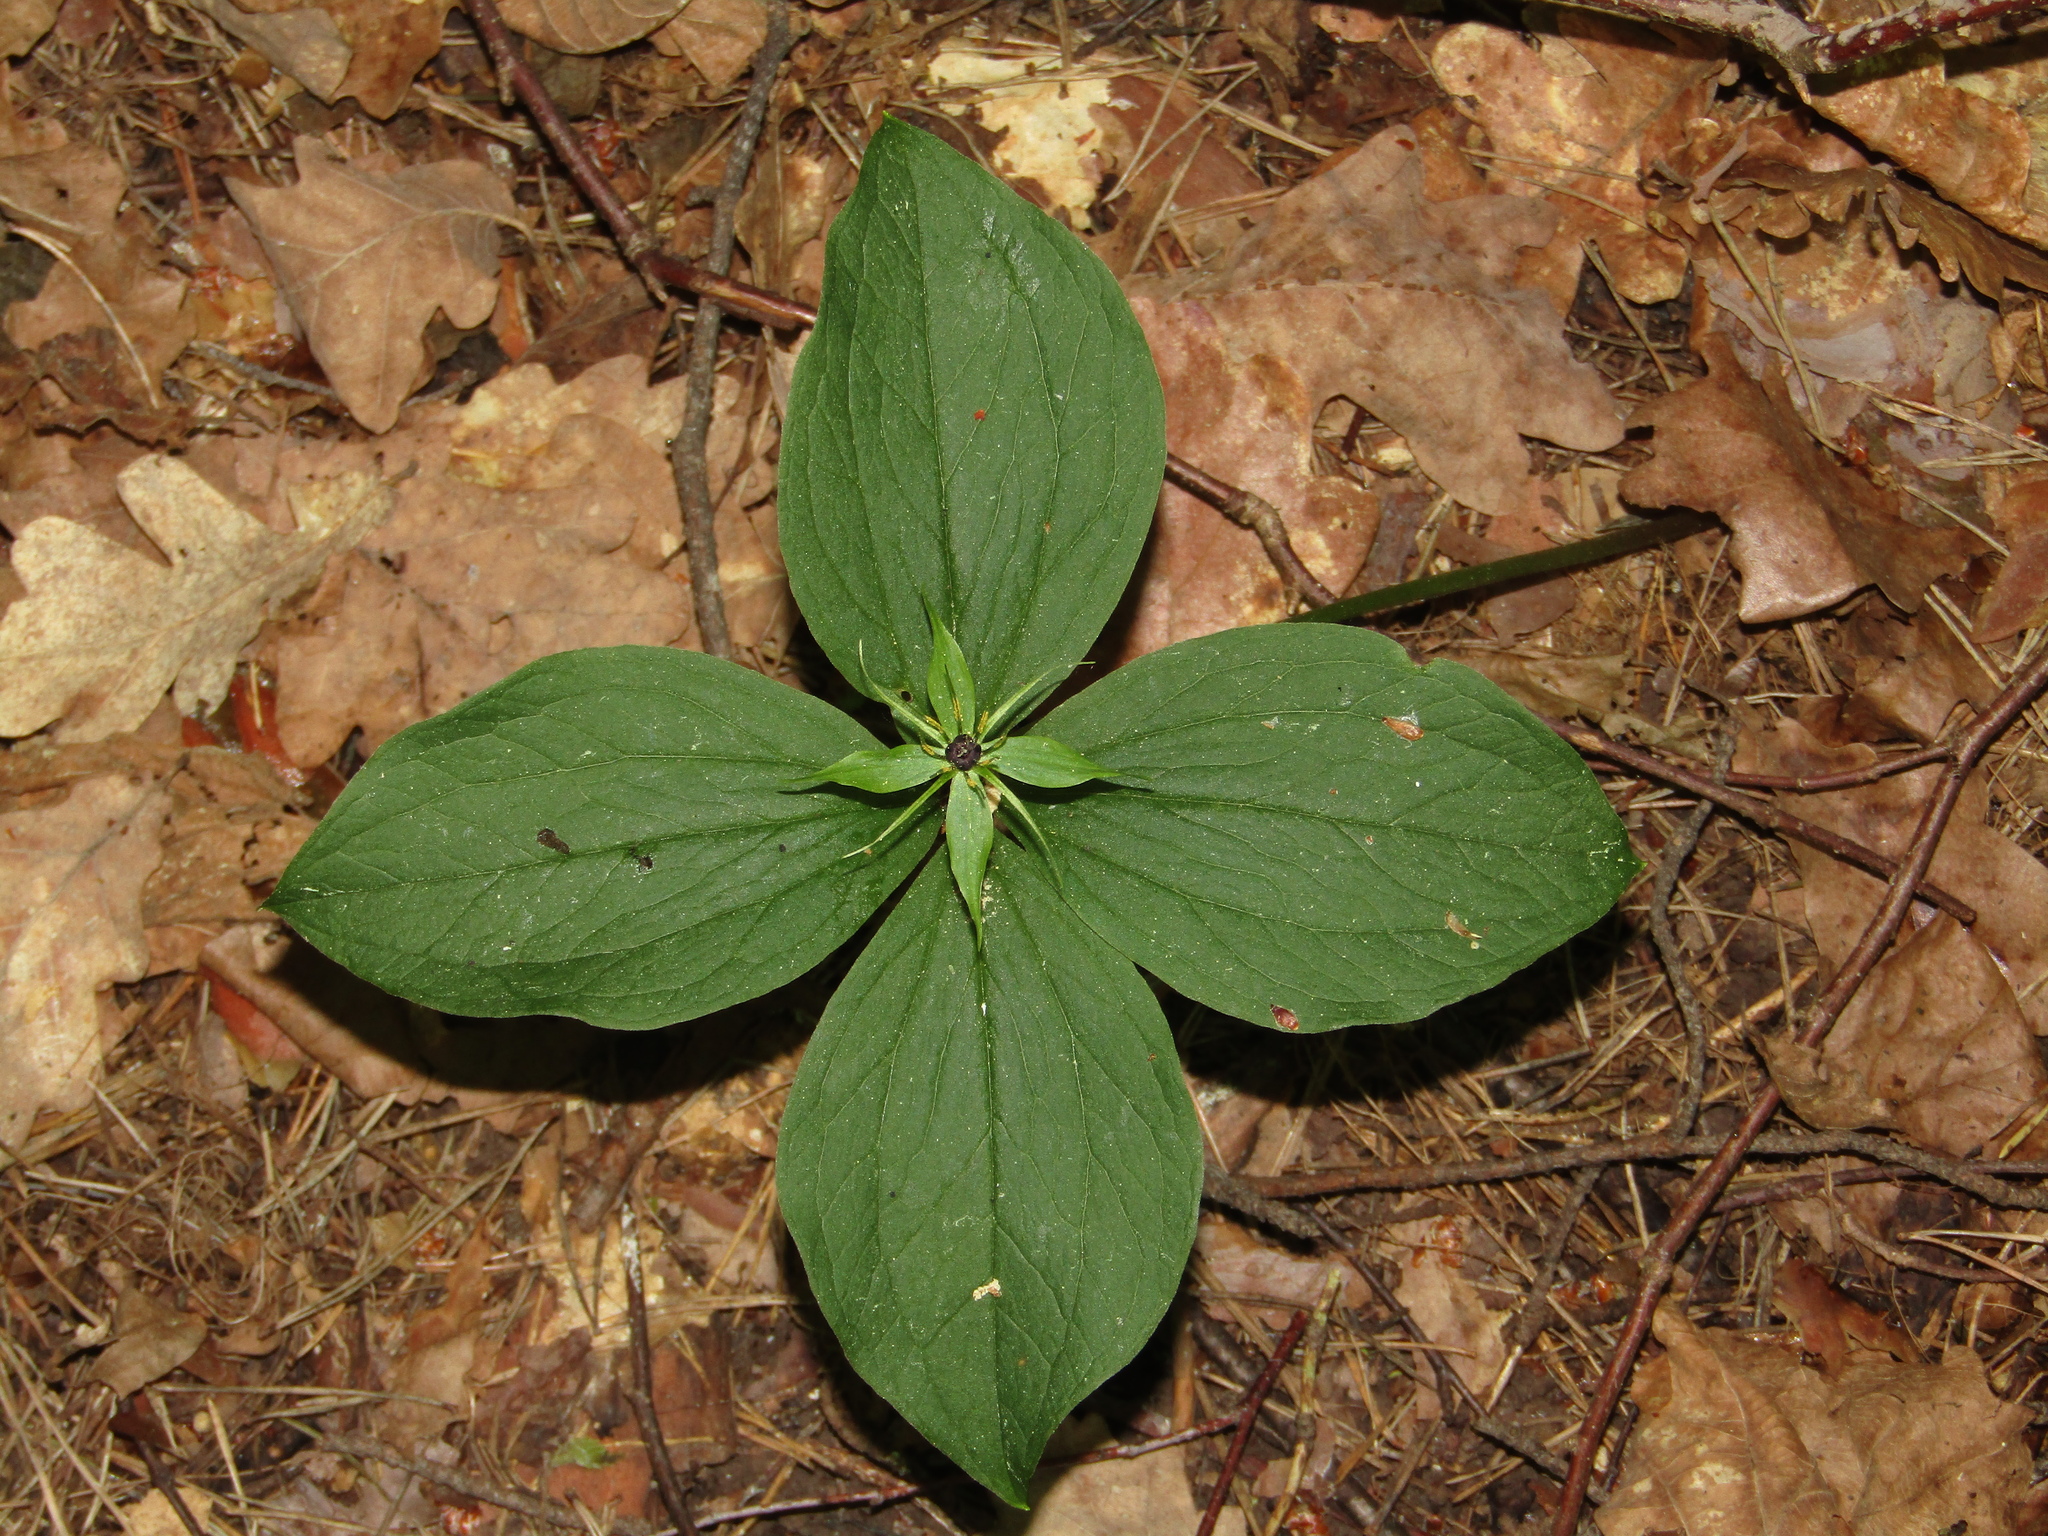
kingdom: Plantae
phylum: Tracheophyta
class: Liliopsida
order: Liliales
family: Melanthiaceae
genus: Paris
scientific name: Paris quadrifolia
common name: Herb-paris
